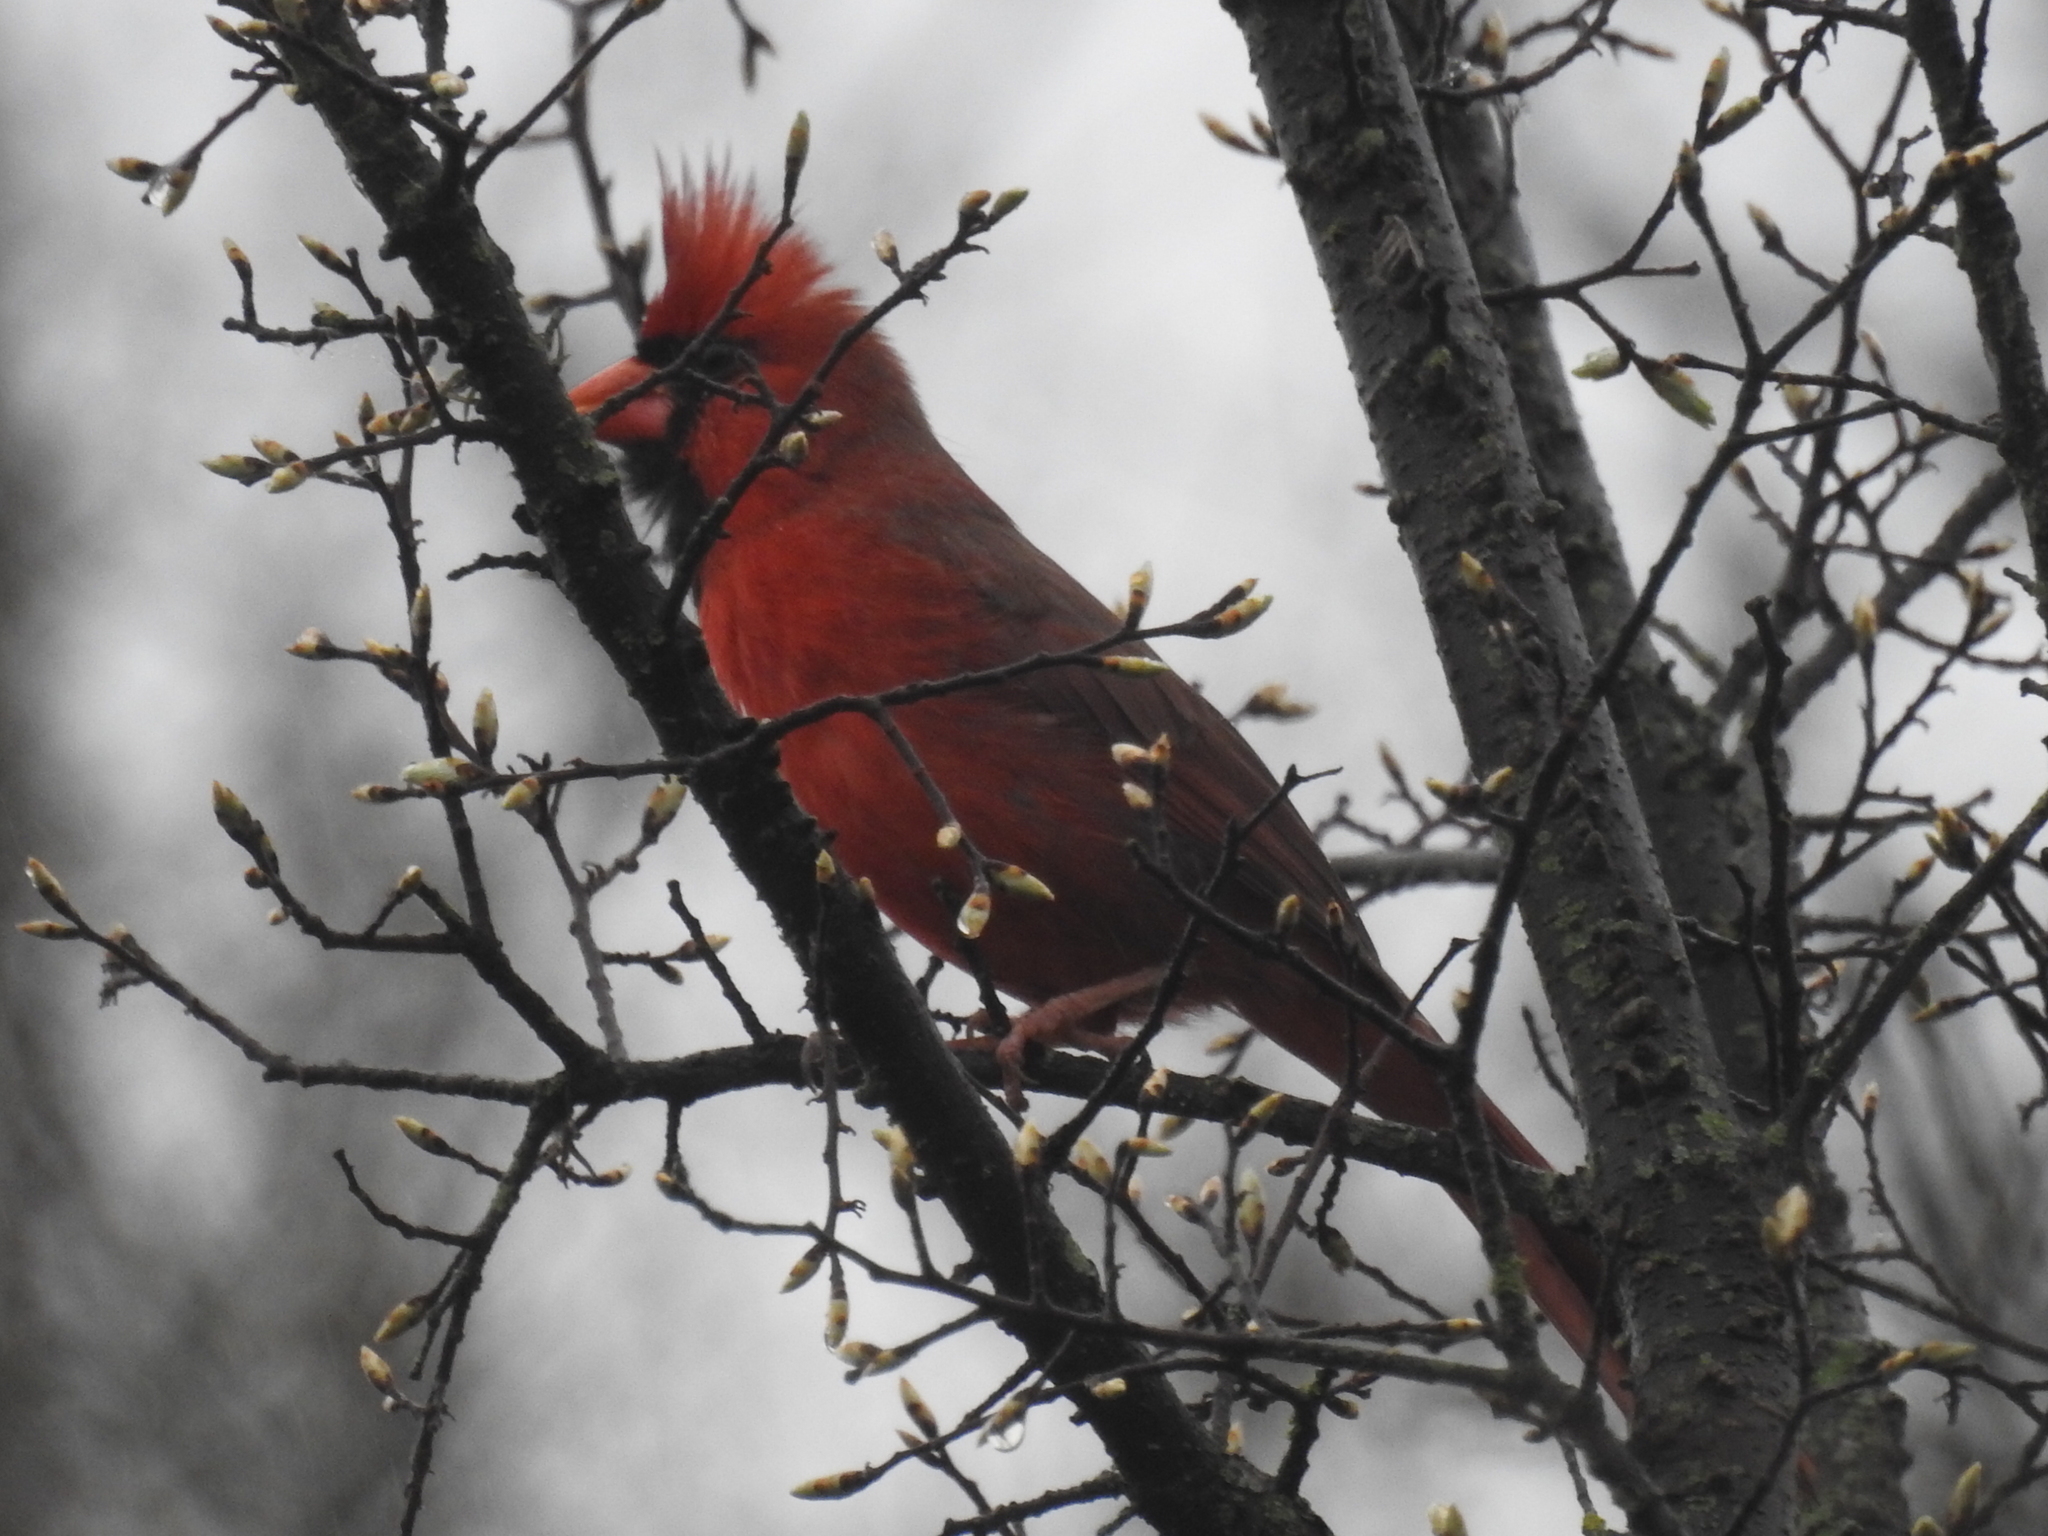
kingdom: Animalia
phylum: Chordata
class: Aves
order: Passeriformes
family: Cardinalidae
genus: Cardinalis
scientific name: Cardinalis cardinalis
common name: Northern cardinal
